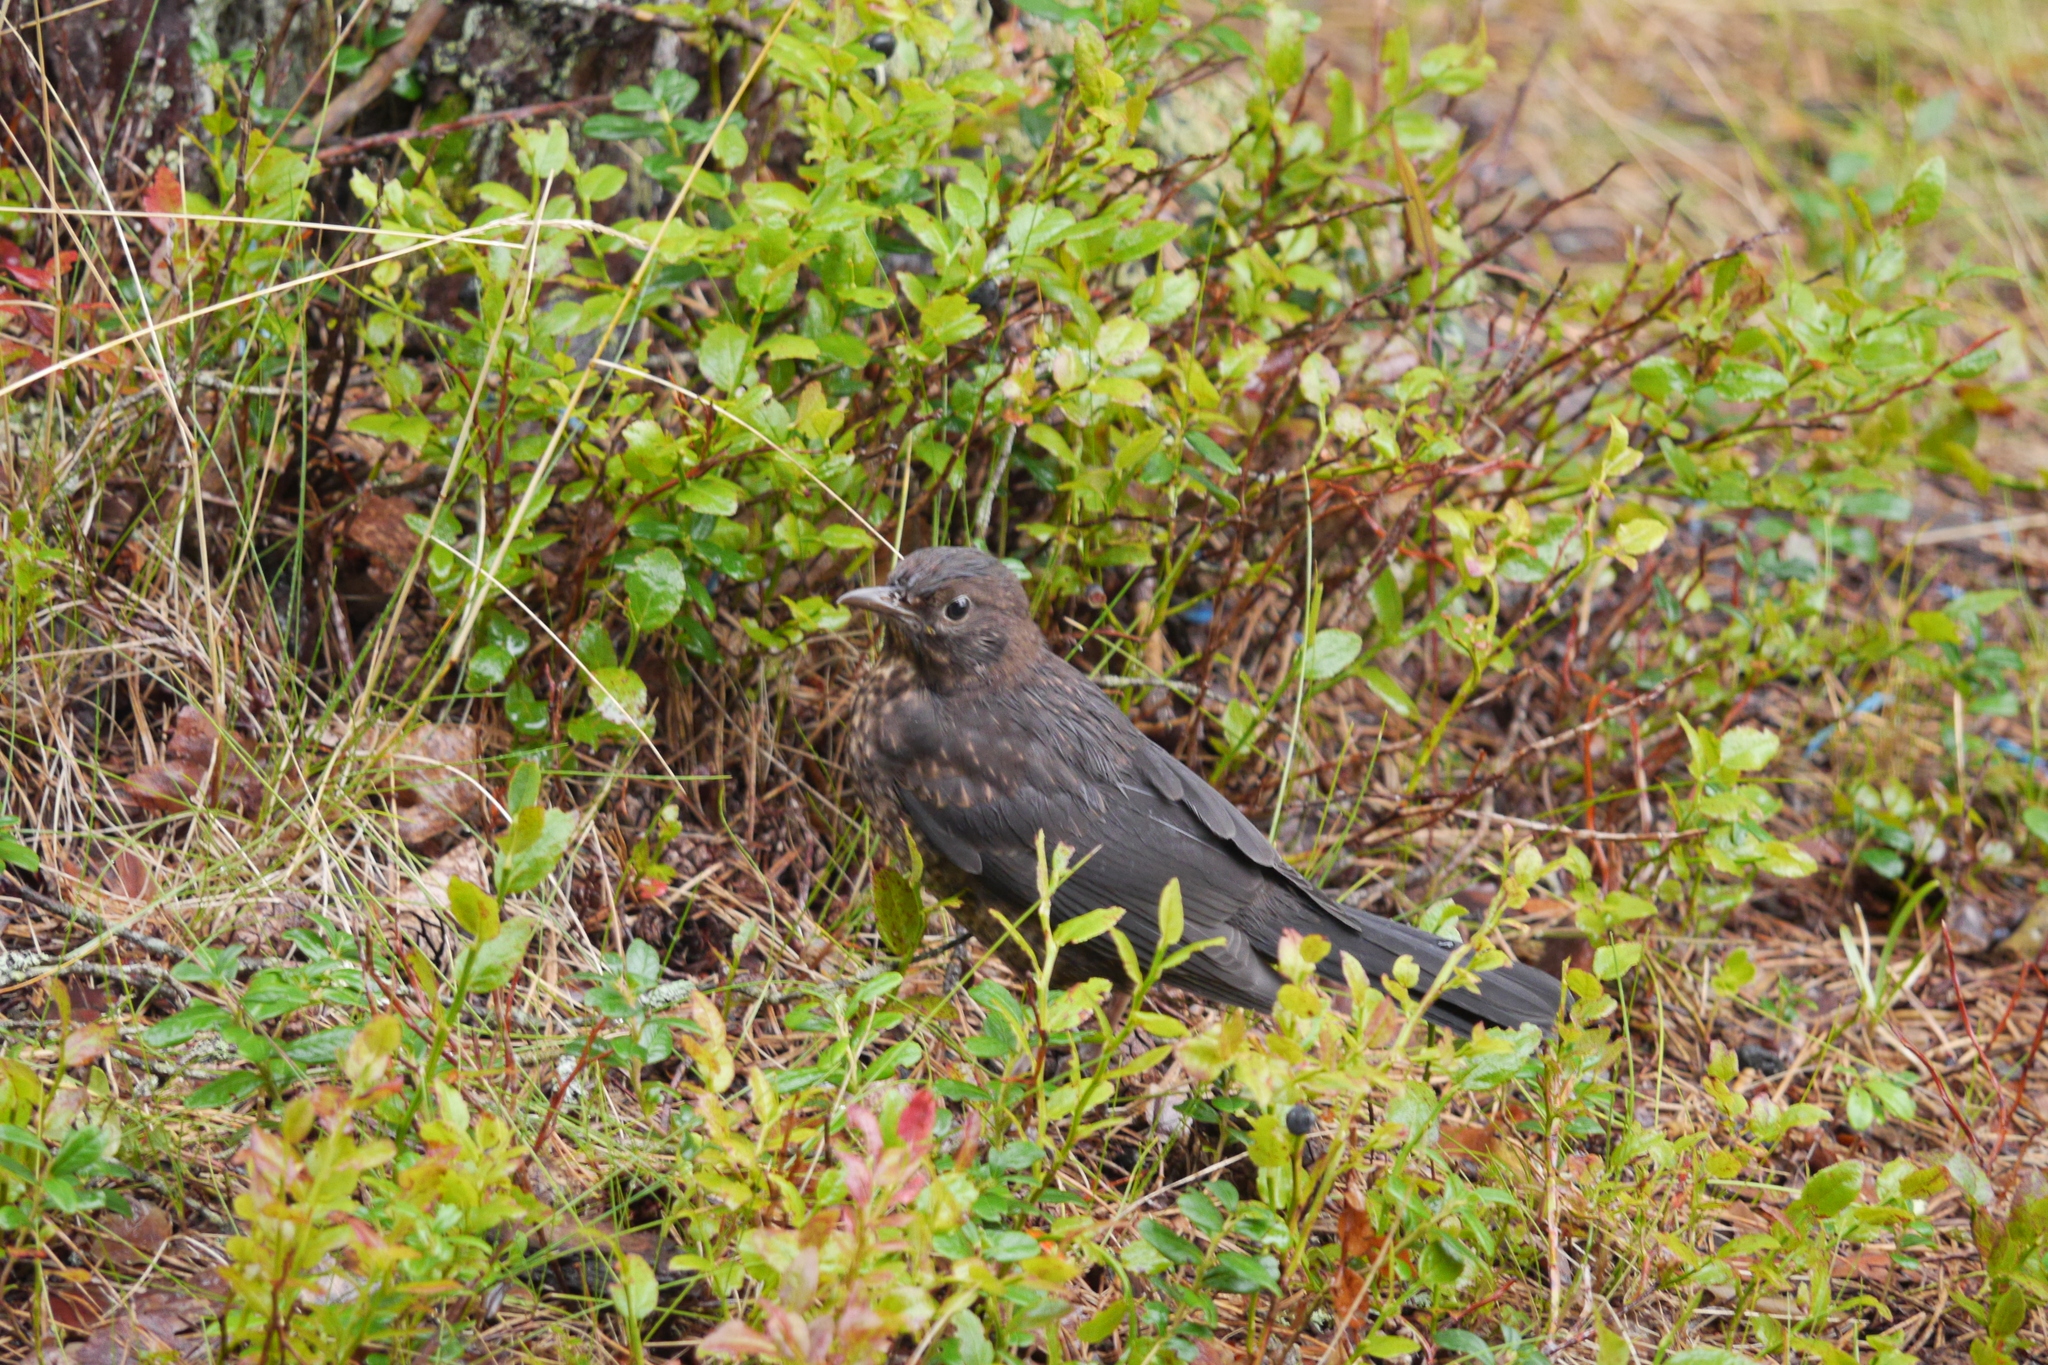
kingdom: Animalia
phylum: Chordata
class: Aves
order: Passeriformes
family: Turdidae
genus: Turdus
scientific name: Turdus merula
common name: Common blackbird
